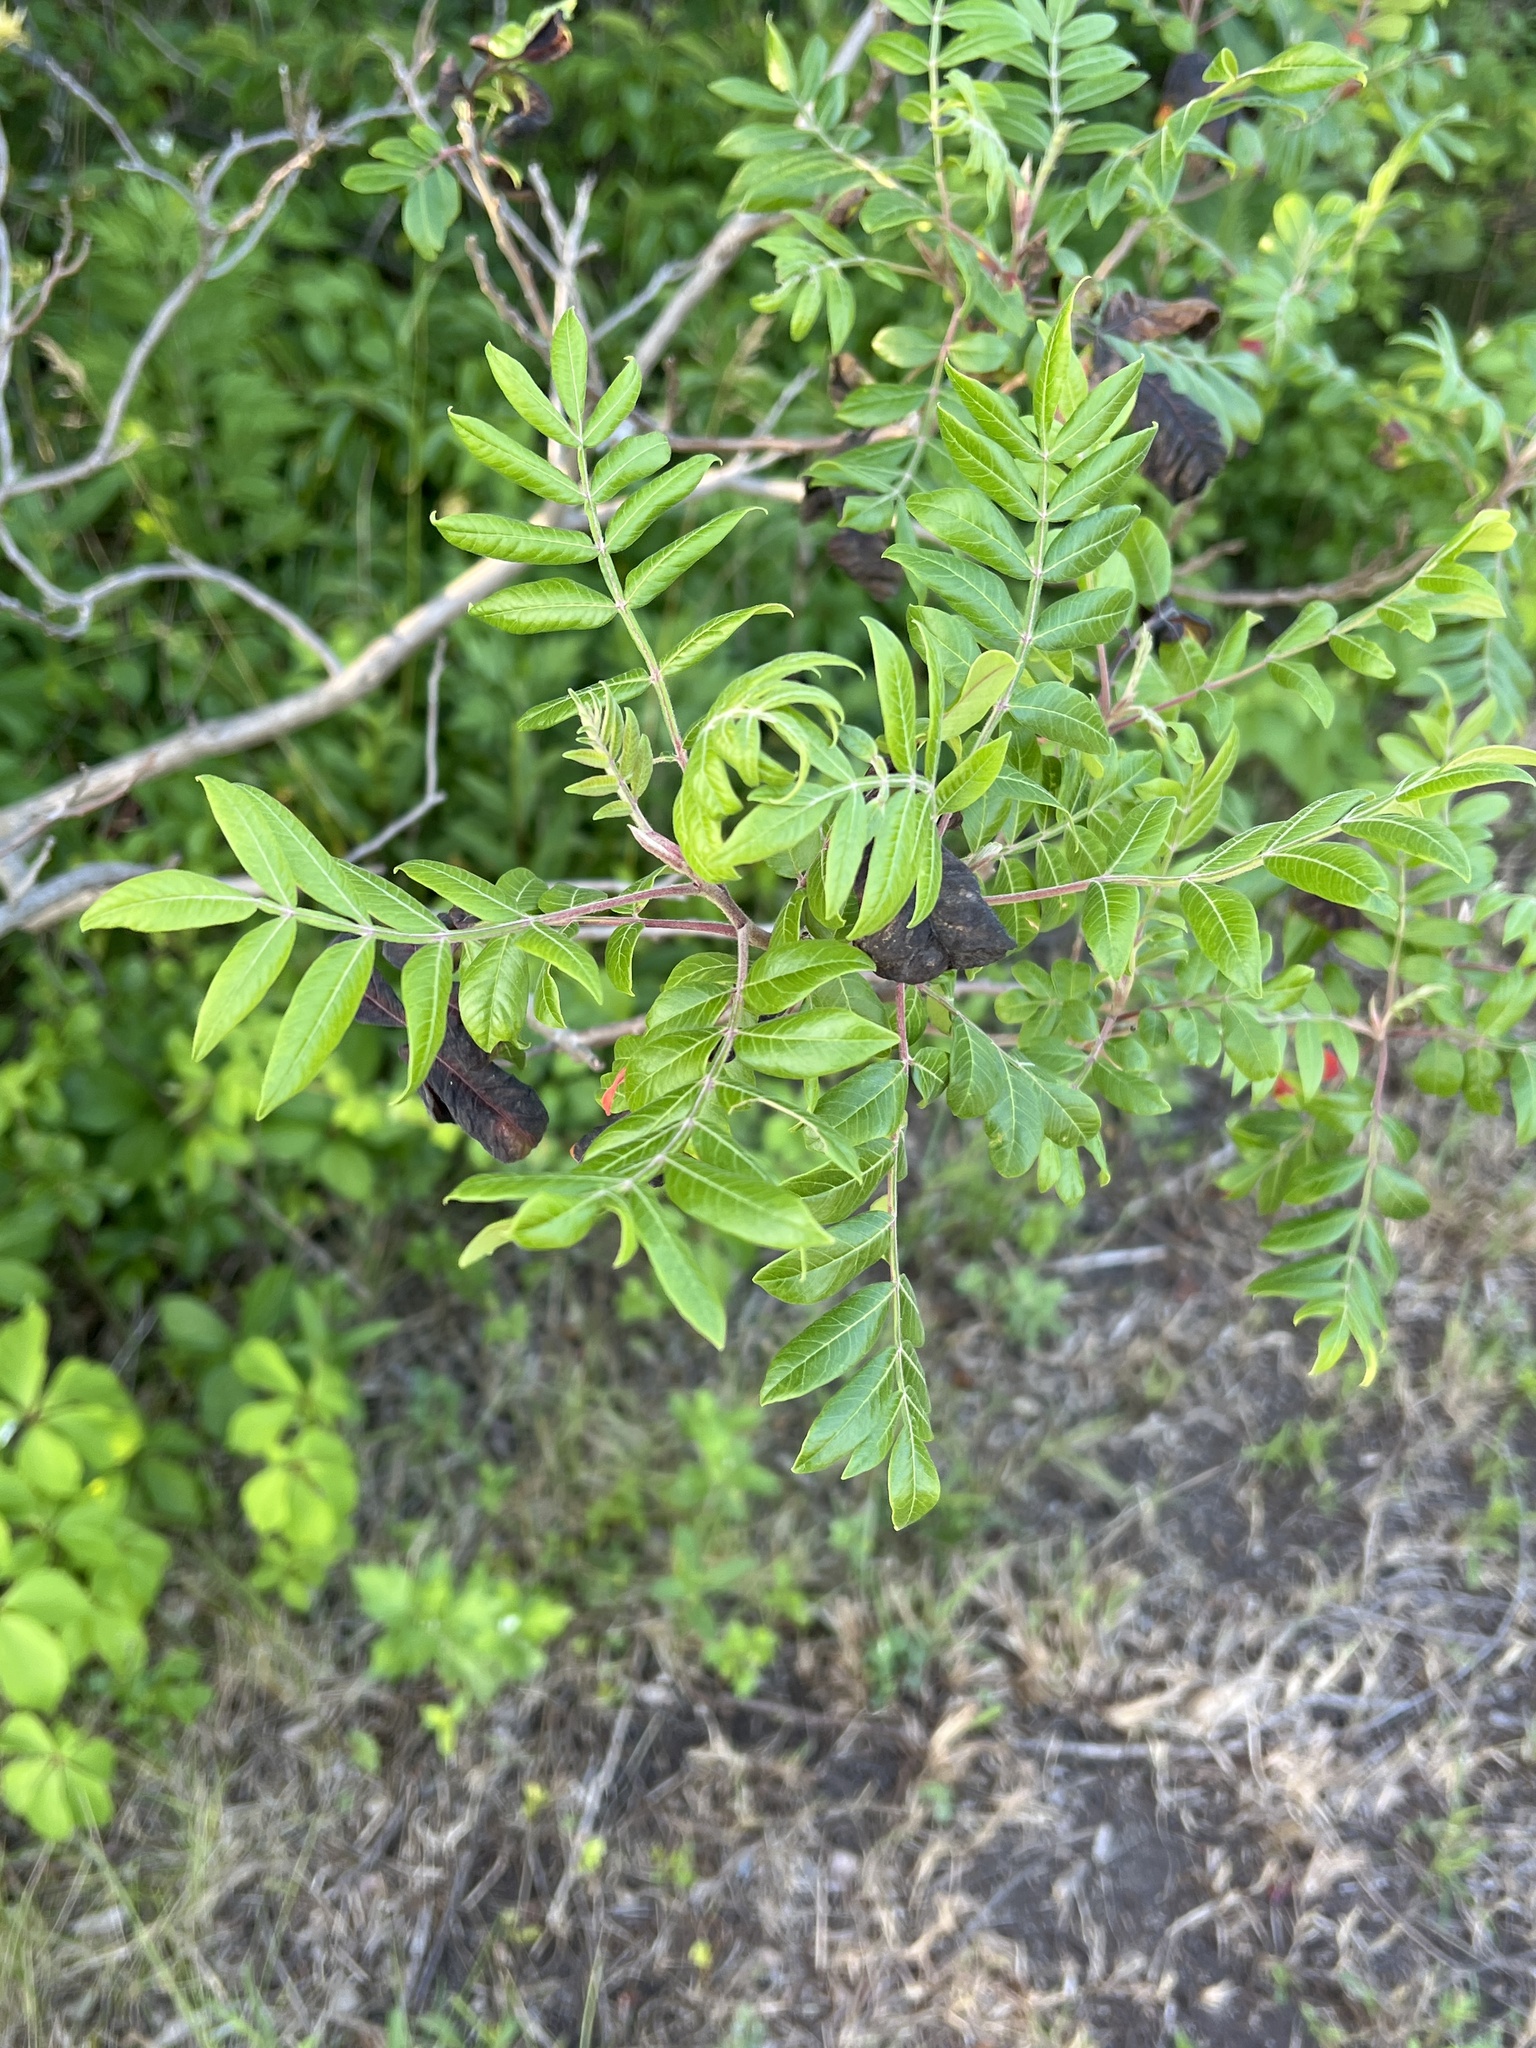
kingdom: Plantae
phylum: Tracheophyta
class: Magnoliopsida
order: Sapindales
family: Anacardiaceae
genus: Rhus
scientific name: Rhus copallina
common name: Shining sumac
